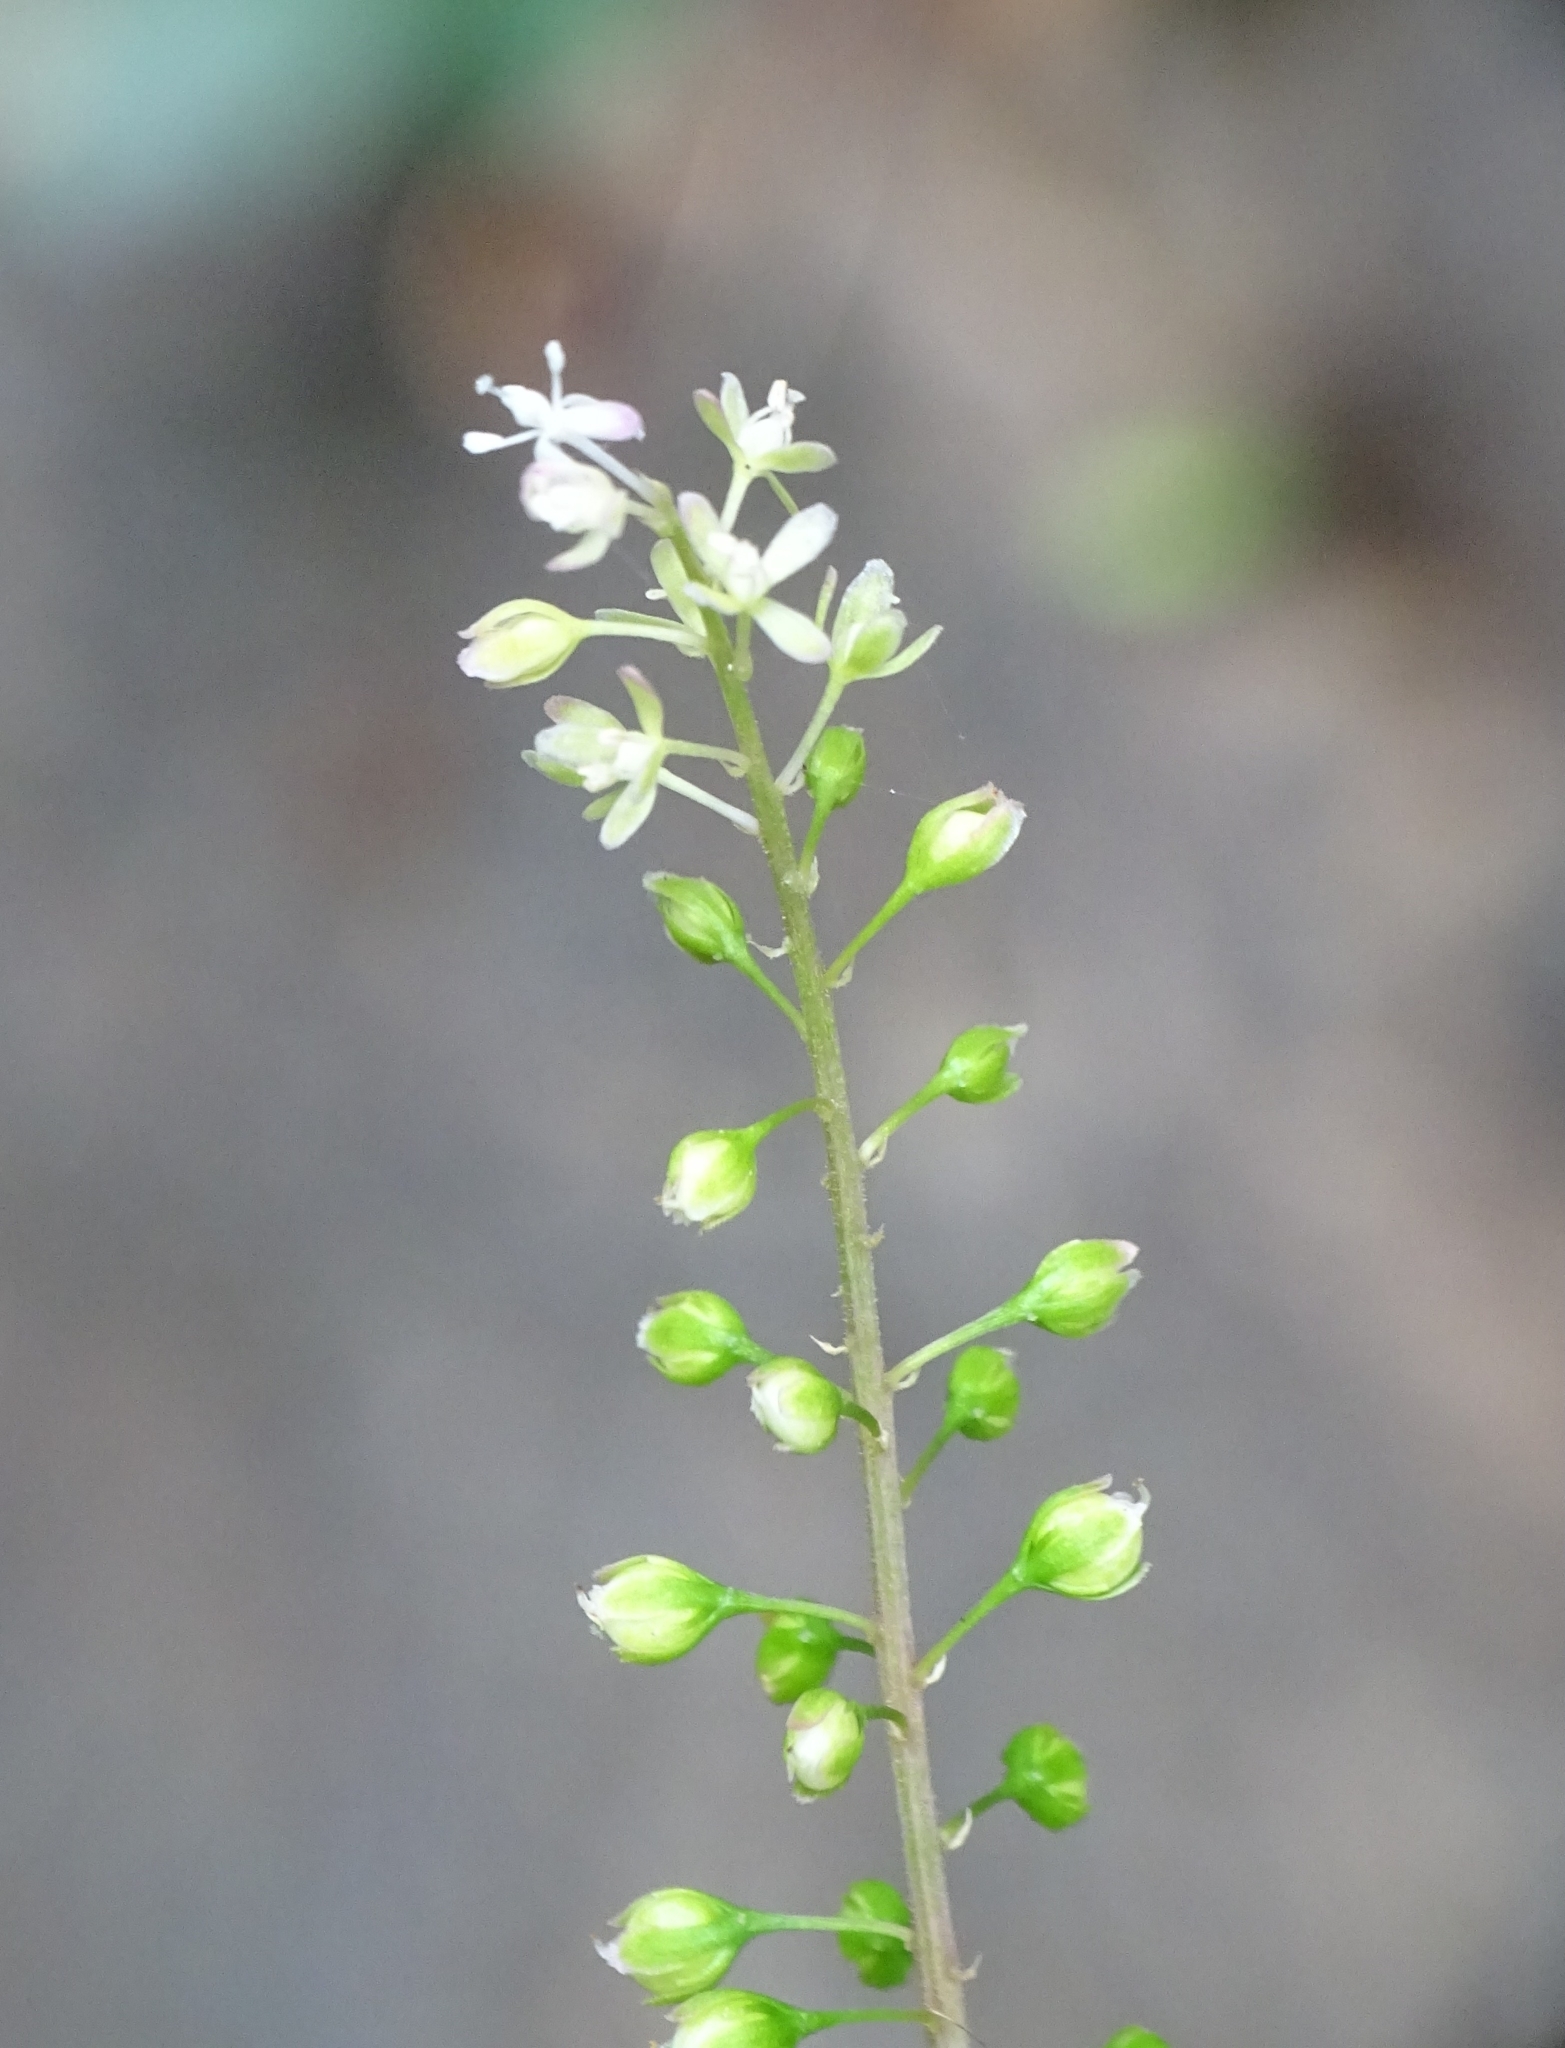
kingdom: Plantae
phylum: Tracheophyta
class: Magnoliopsida
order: Caryophyllales
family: Phytolaccaceae
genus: Rivina
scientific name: Rivina humilis
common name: Rougeplant
